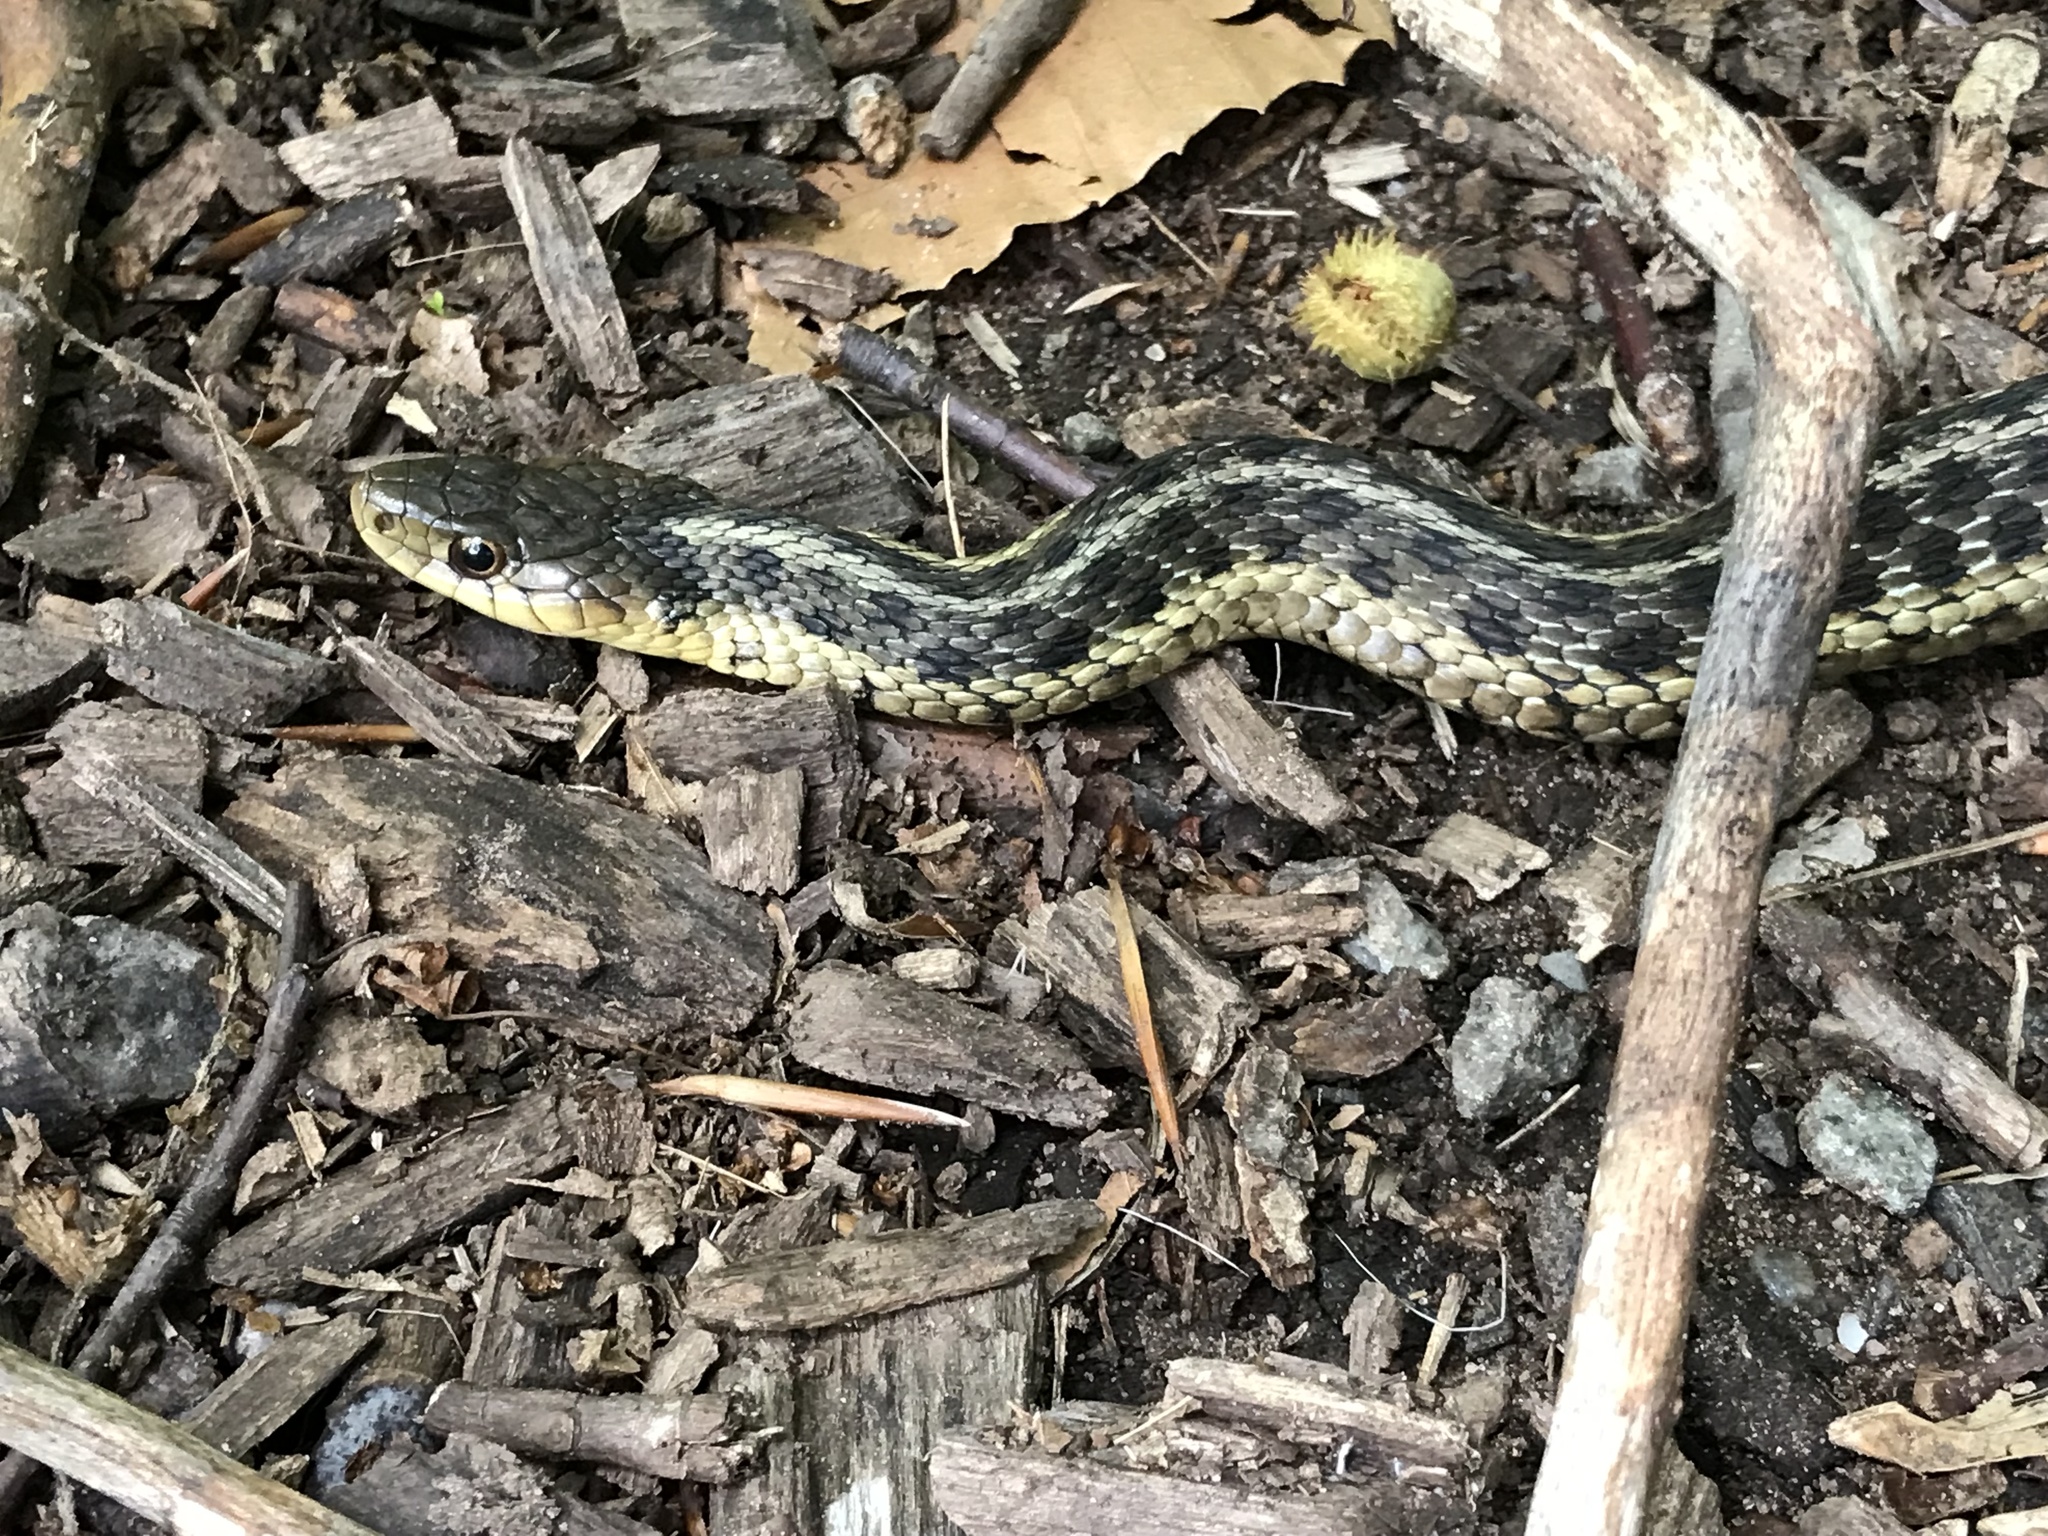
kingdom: Animalia
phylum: Chordata
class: Squamata
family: Colubridae
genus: Thamnophis
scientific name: Thamnophis sirtalis
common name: Common garter snake
